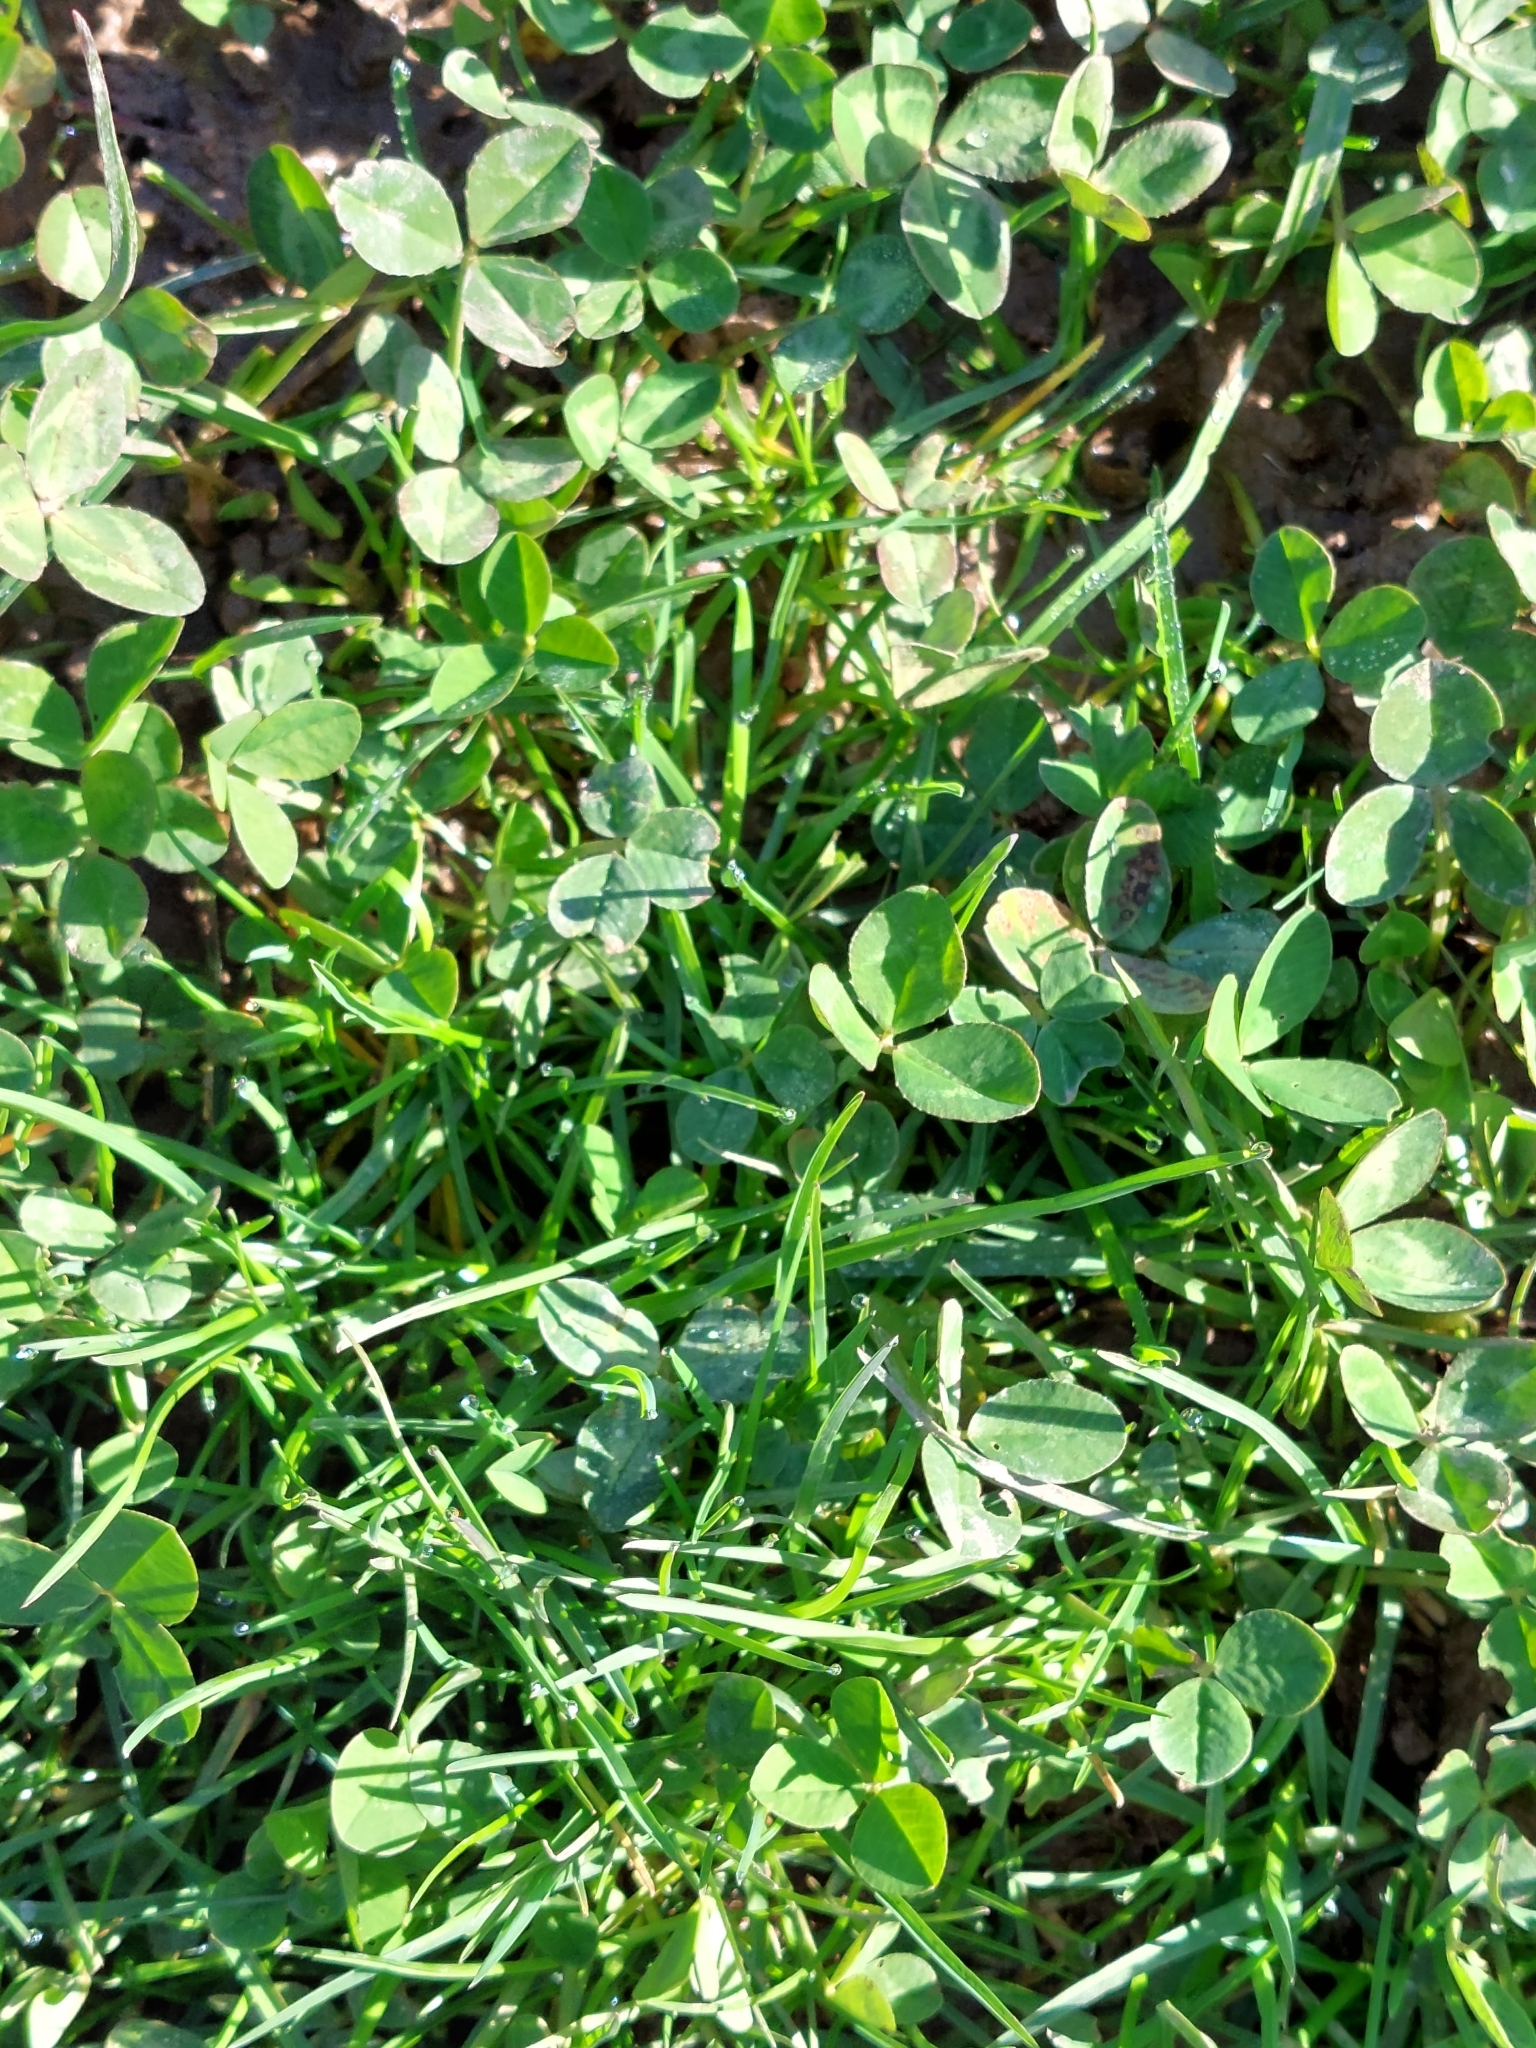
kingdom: Plantae
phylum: Tracheophyta
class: Magnoliopsida
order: Fabales
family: Fabaceae
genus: Trifolium
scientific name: Trifolium repens
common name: White clover
